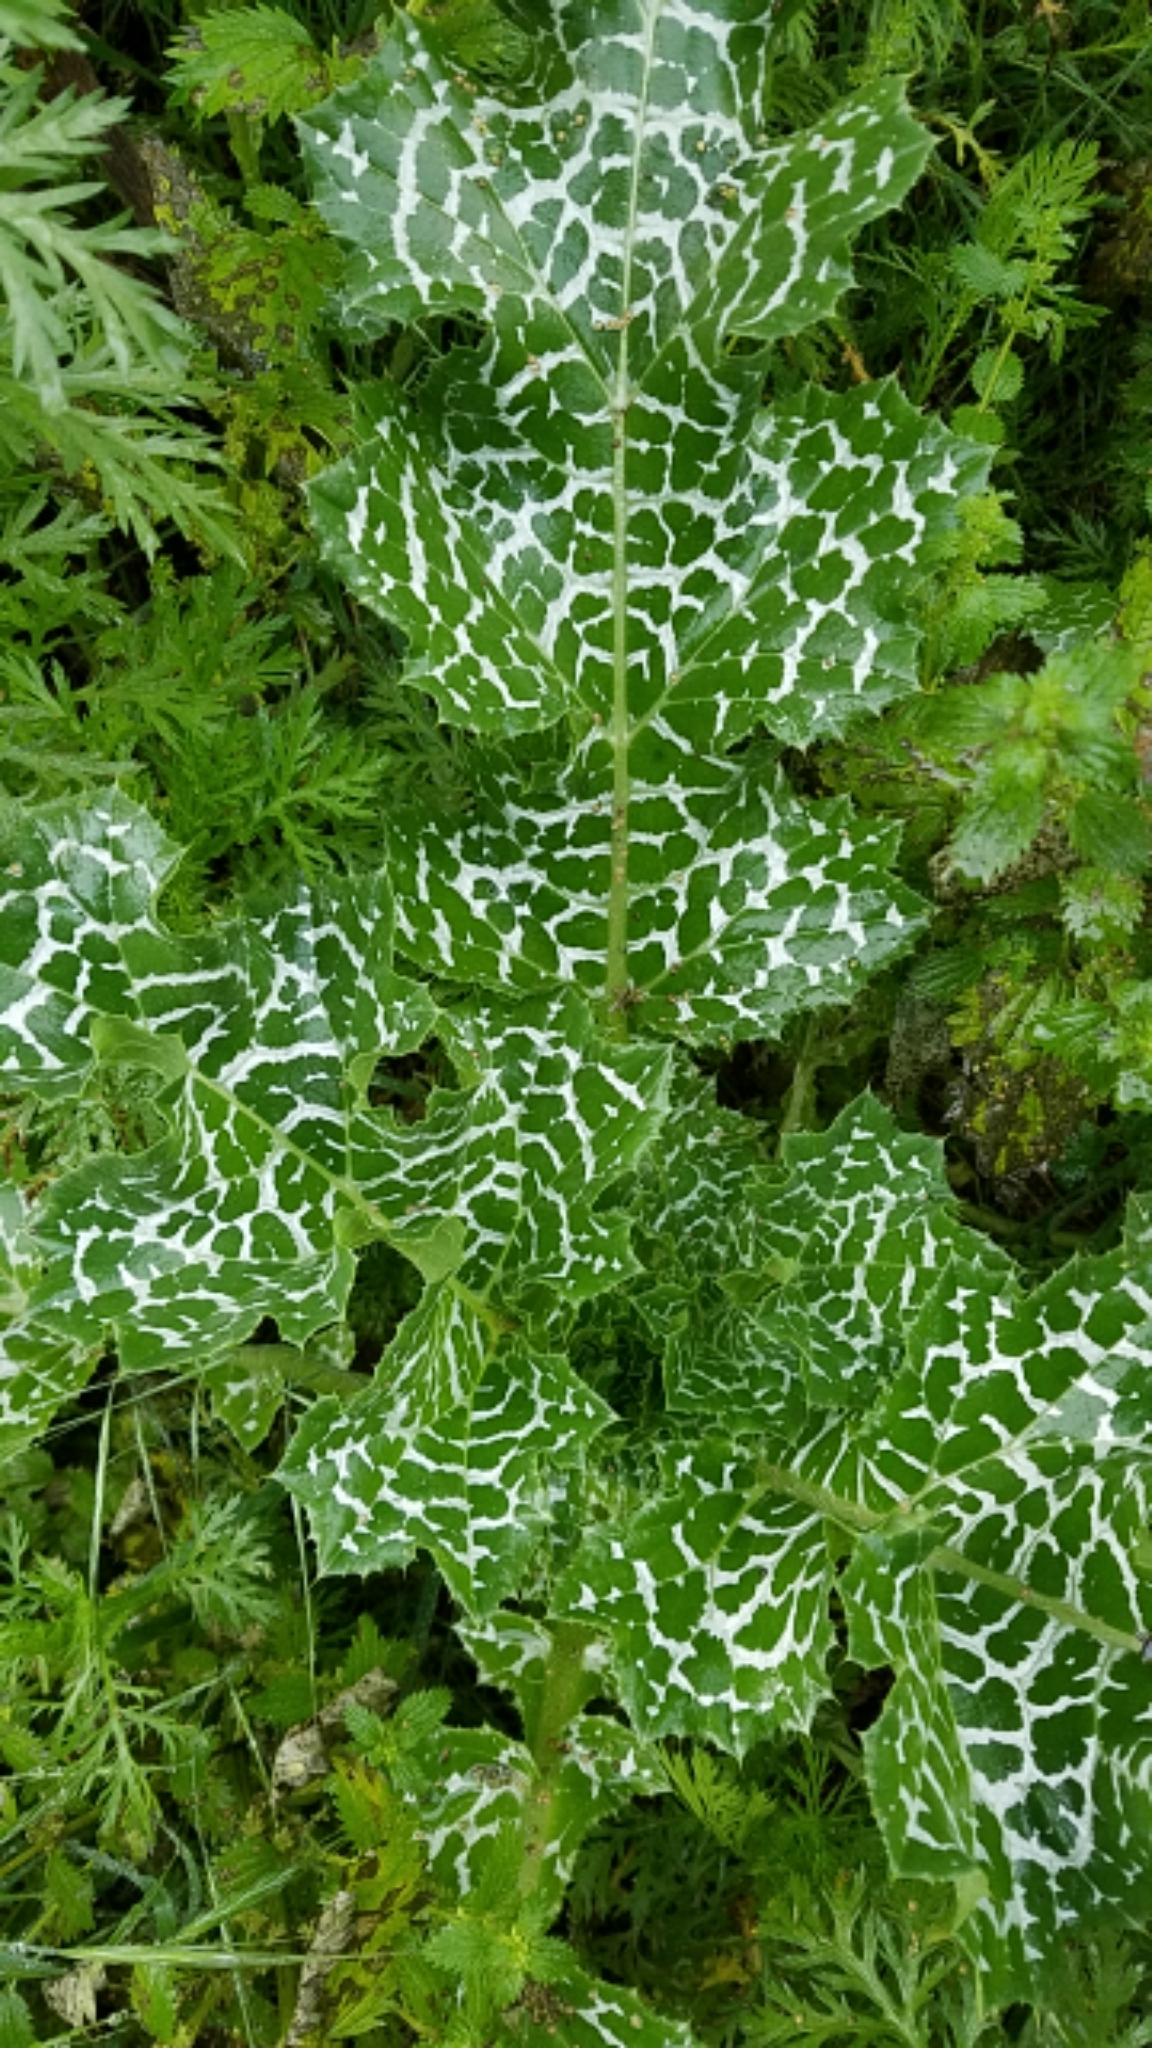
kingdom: Plantae
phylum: Tracheophyta
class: Magnoliopsida
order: Asterales
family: Asteraceae
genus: Silybum
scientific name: Silybum marianum
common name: Milk thistle
